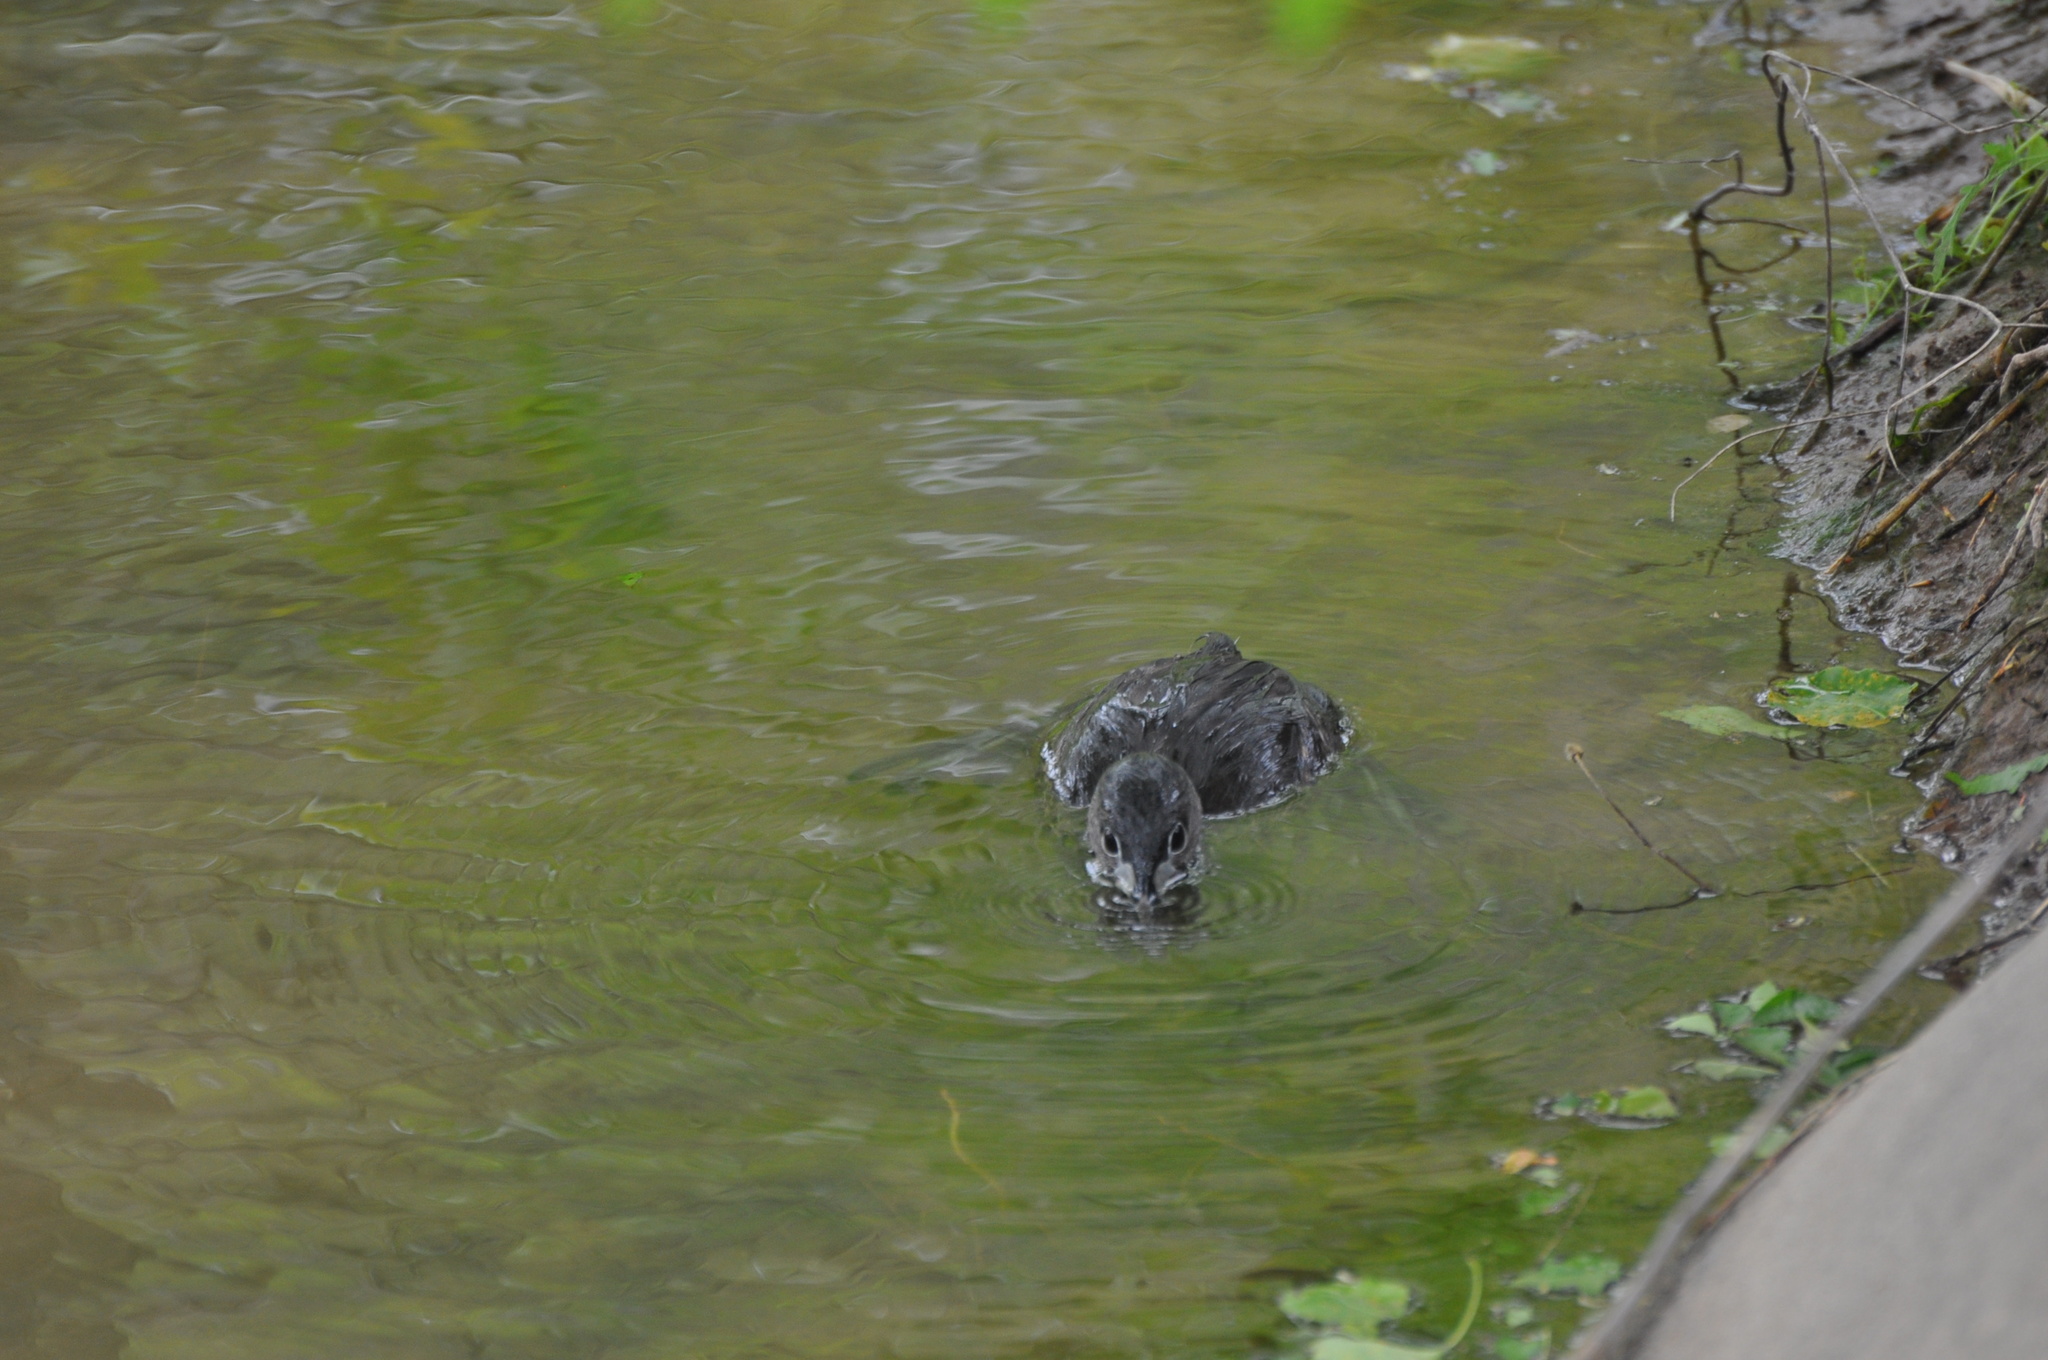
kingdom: Animalia
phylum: Chordata
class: Aves
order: Podicipediformes
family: Podicipedidae
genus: Podilymbus
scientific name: Podilymbus podiceps
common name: Pied-billed grebe
